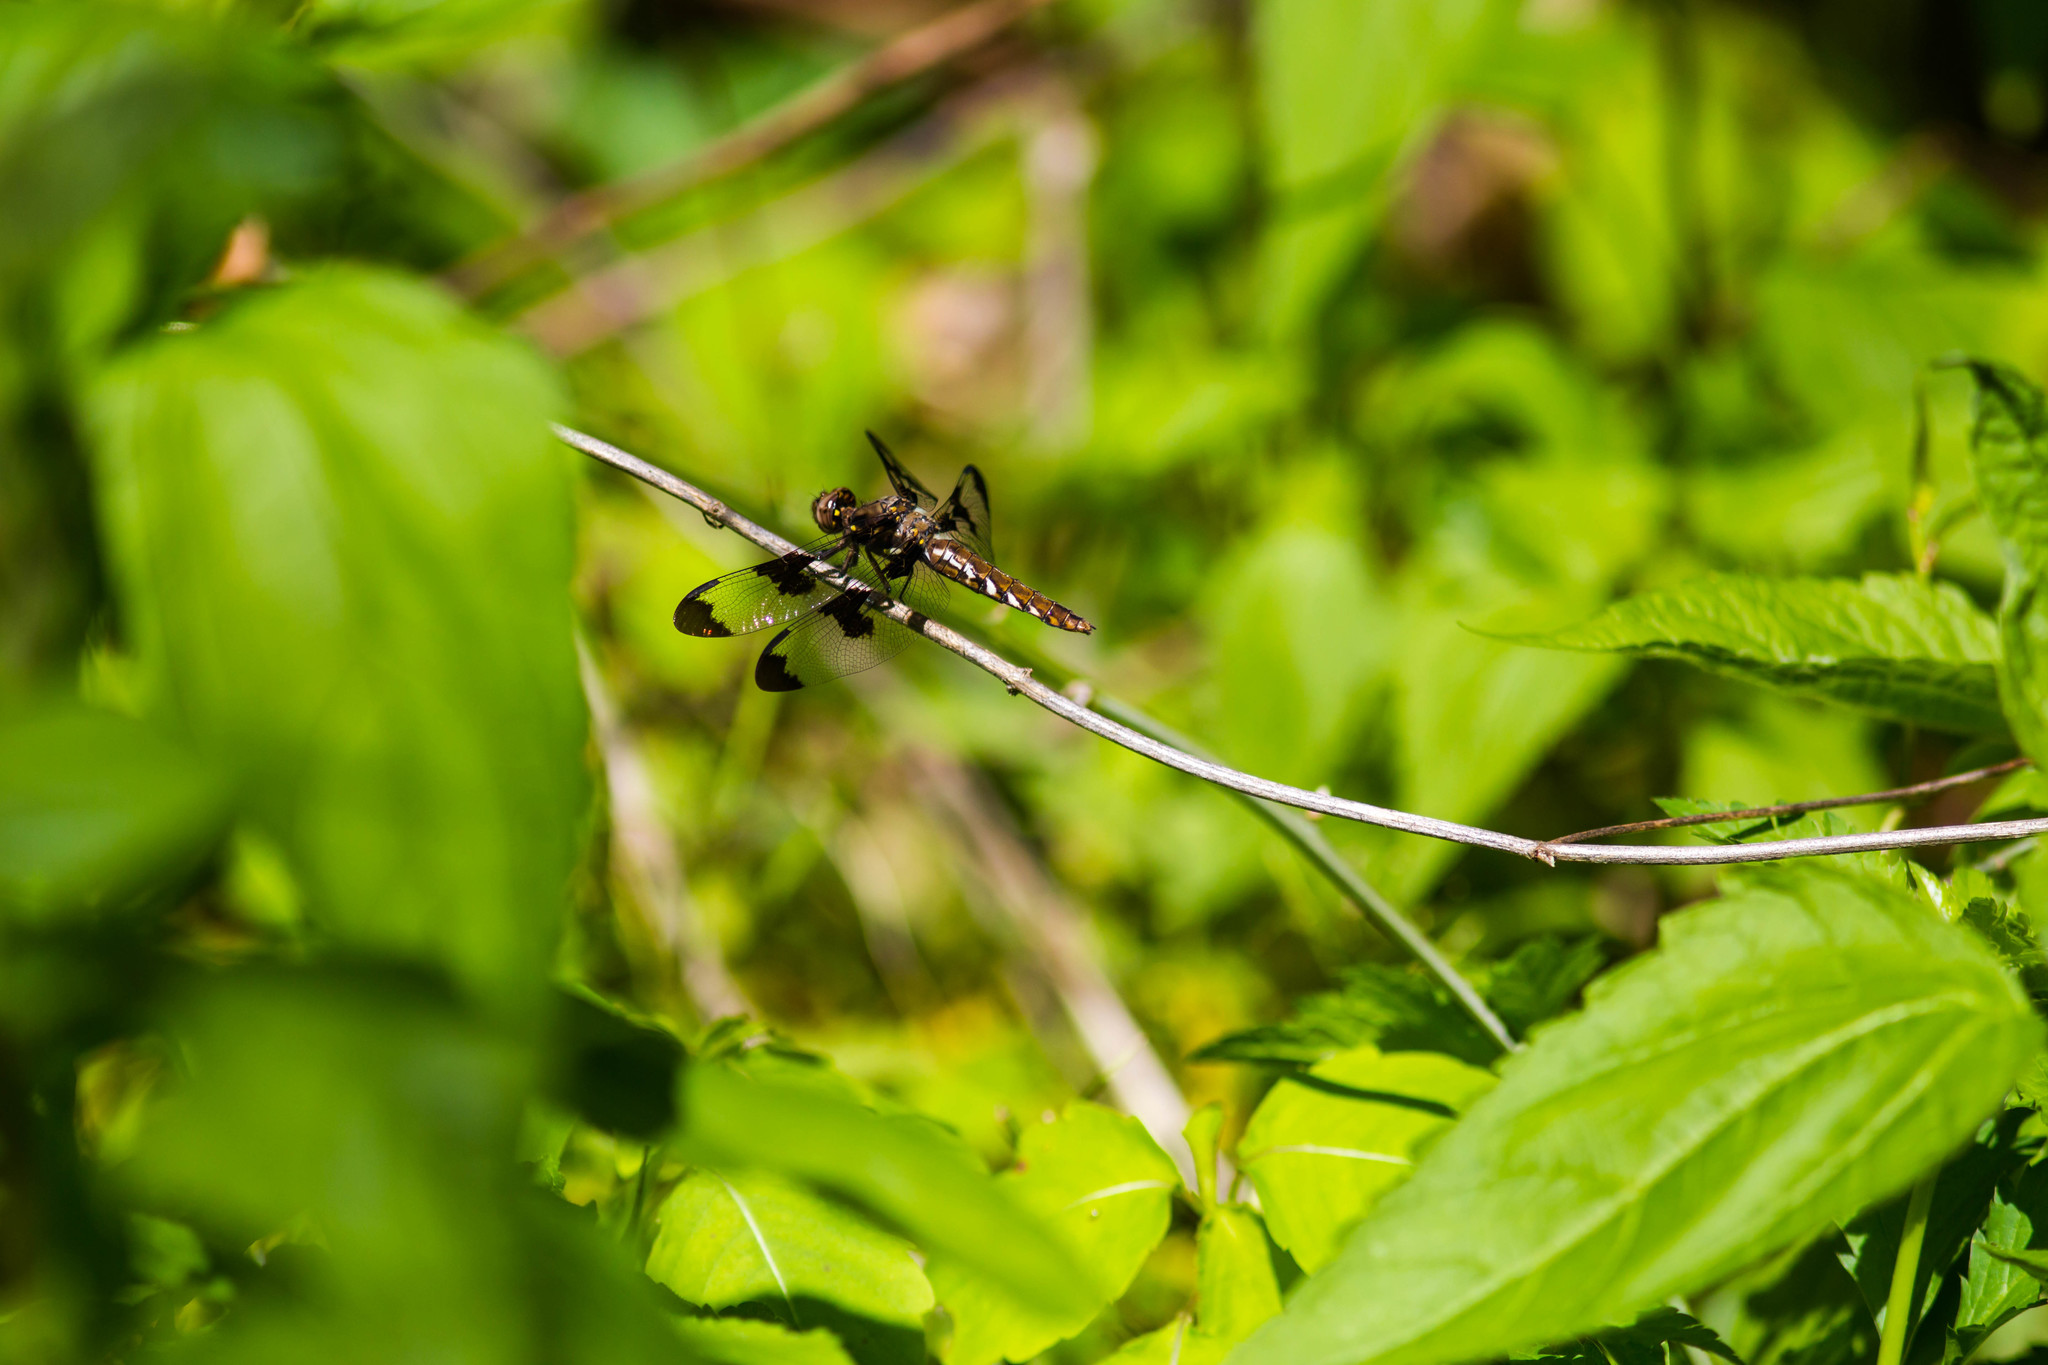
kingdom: Animalia
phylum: Arthropoda
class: Insecta
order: Odonata
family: Libellulidae
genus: Plathemis
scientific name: Plathemis lydia
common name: Common whitetail
